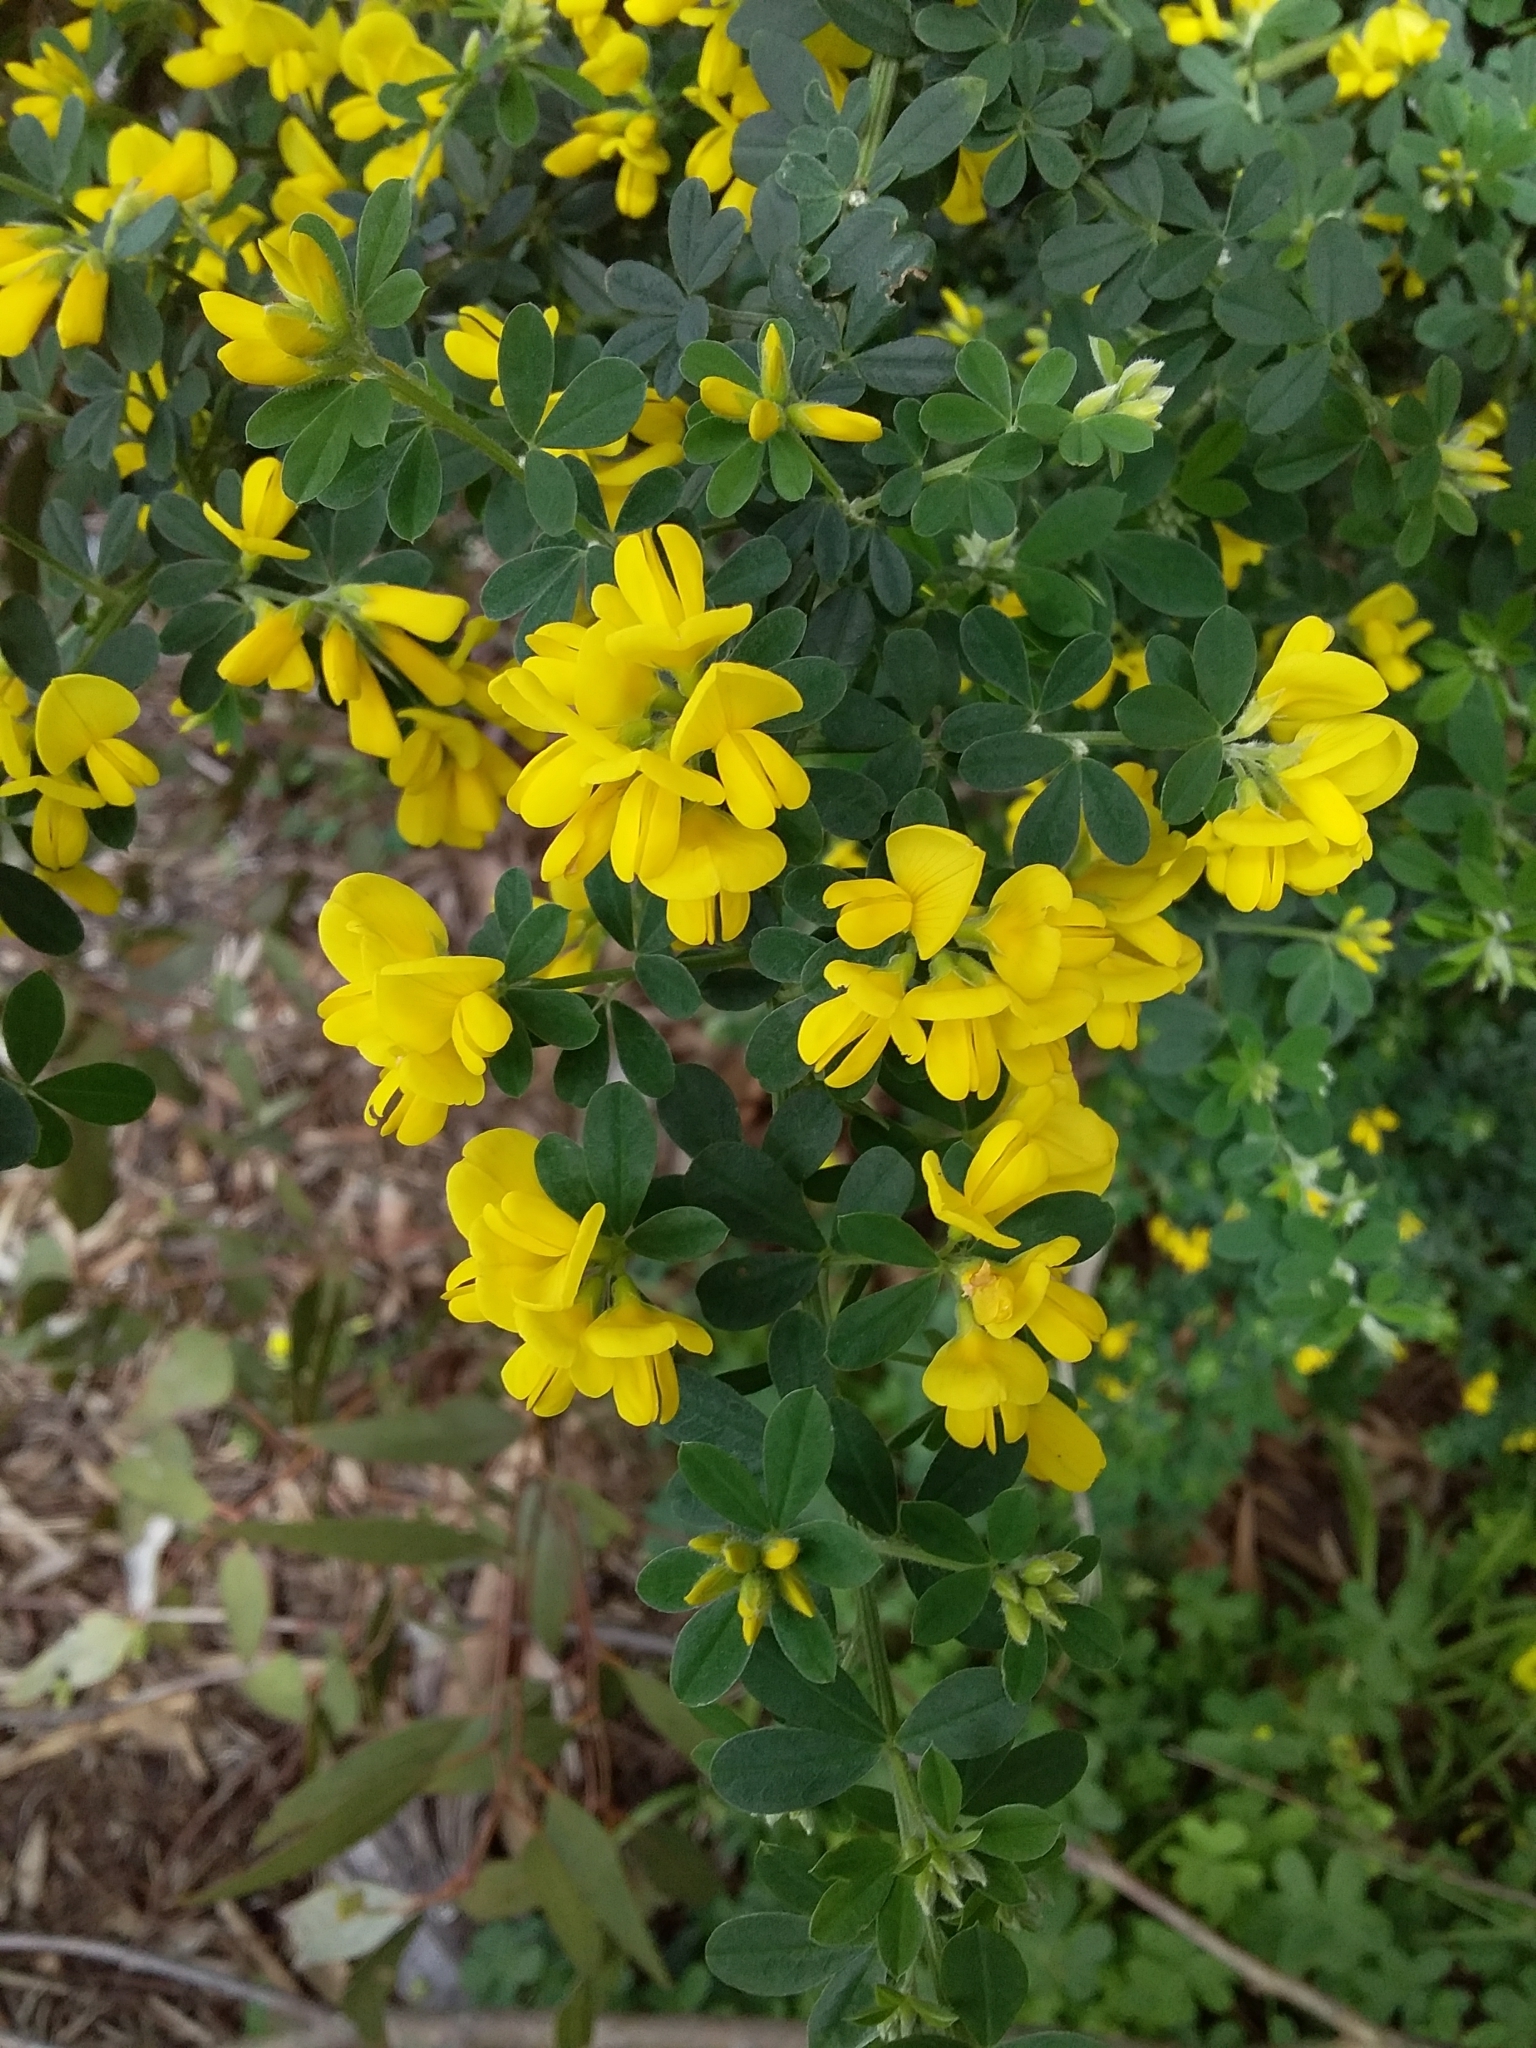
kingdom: Plantae
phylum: Tracheophyta
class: Magnoliopsida
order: Fabales
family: Fabaceae
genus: Genista
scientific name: Genista monspessulana
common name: Montpellier broom
